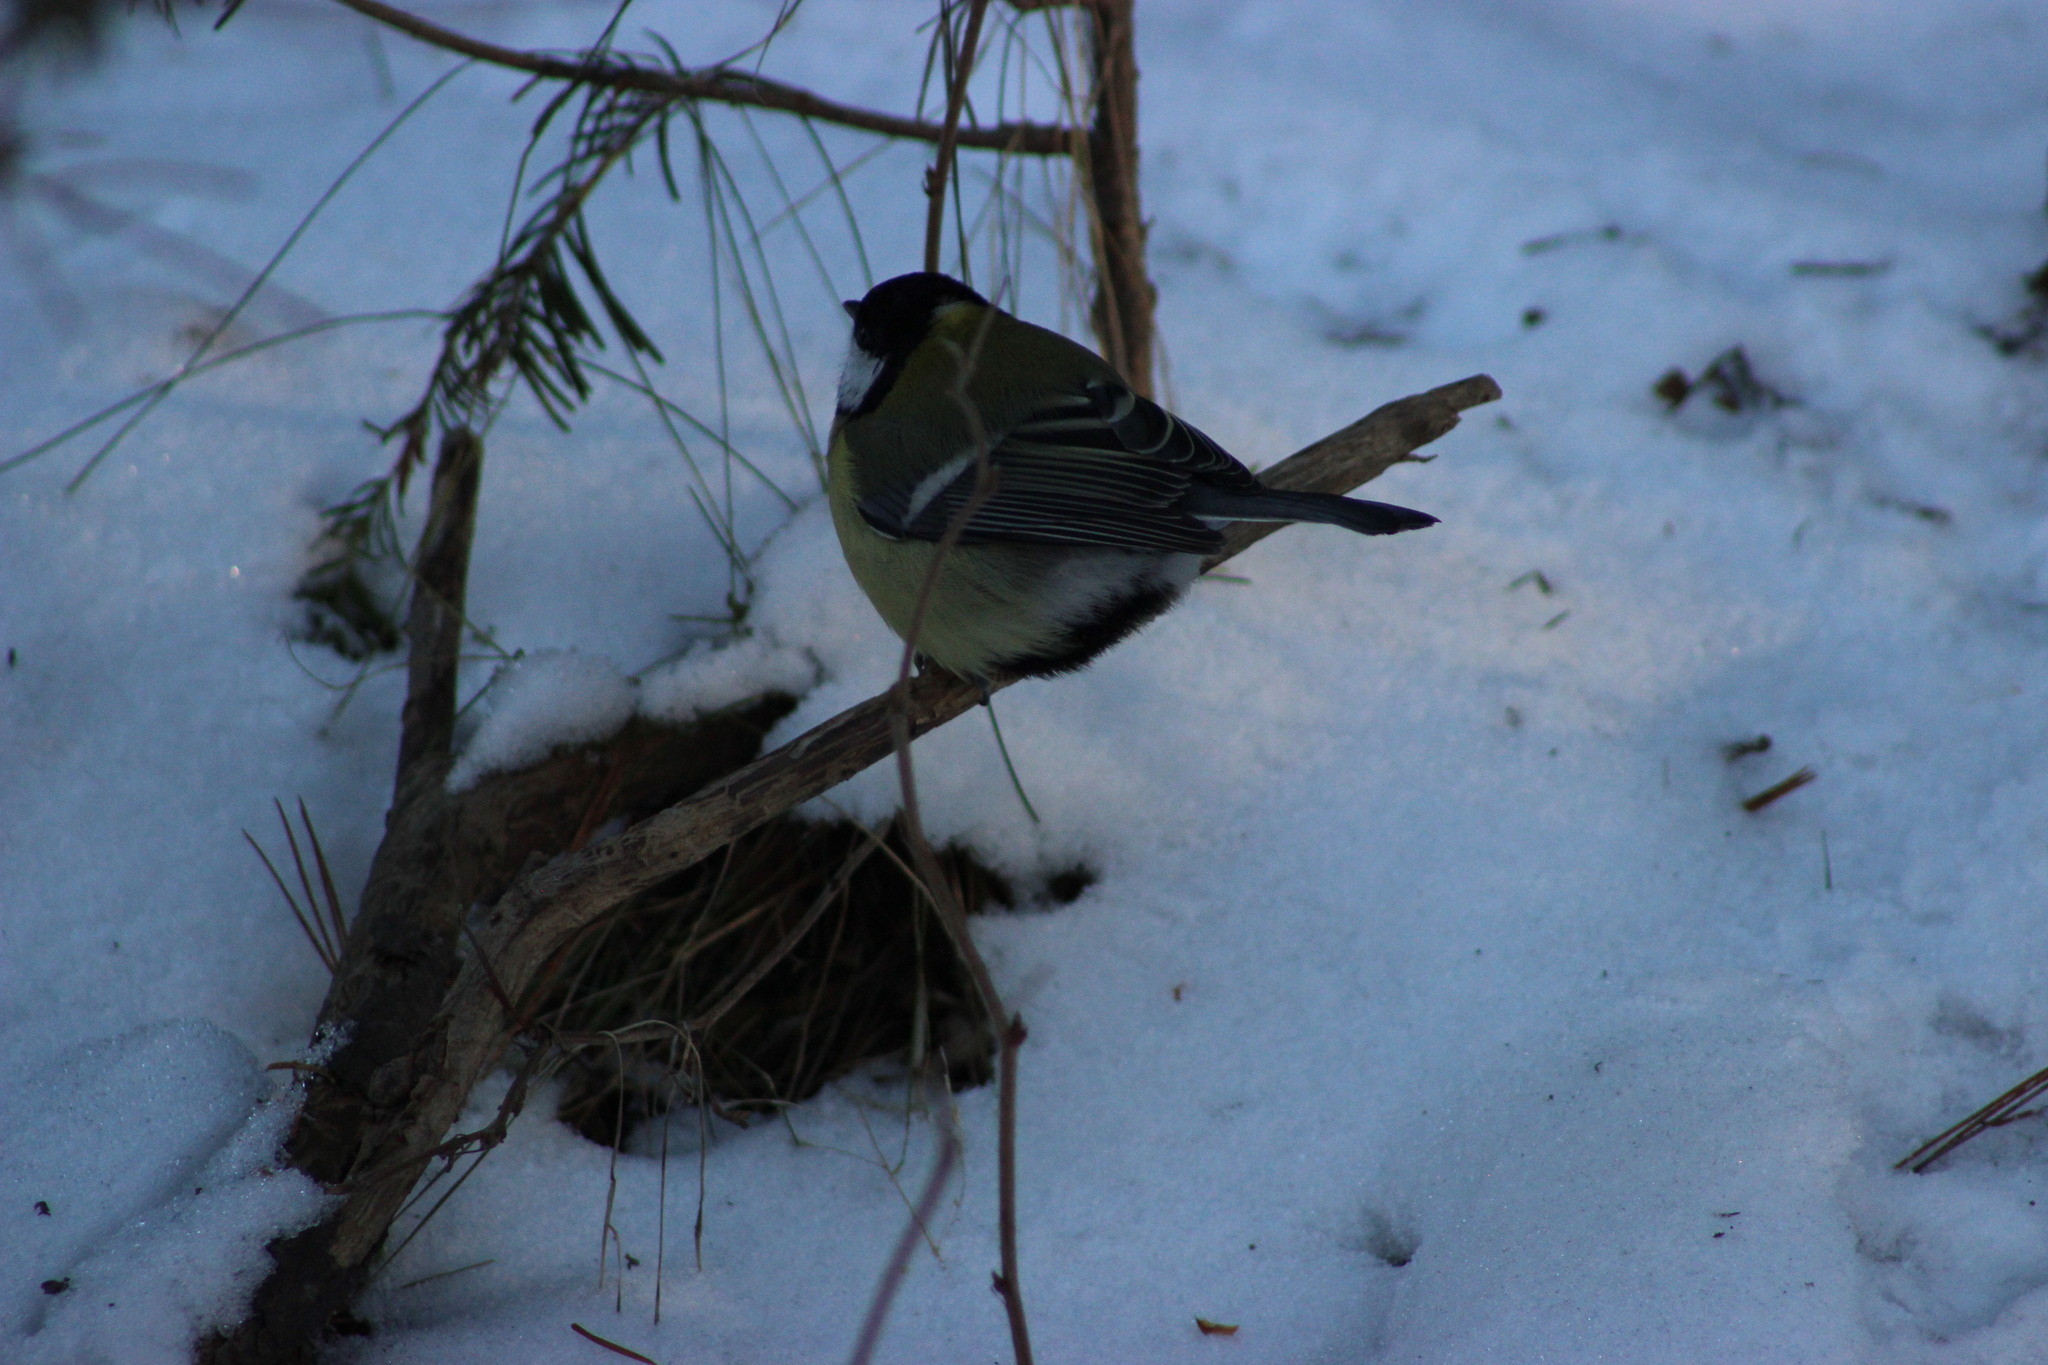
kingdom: Animalia
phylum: Chordata
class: Aves
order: Passeriformes
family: Paridae
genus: Parus
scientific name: Parus major
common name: Great tit
